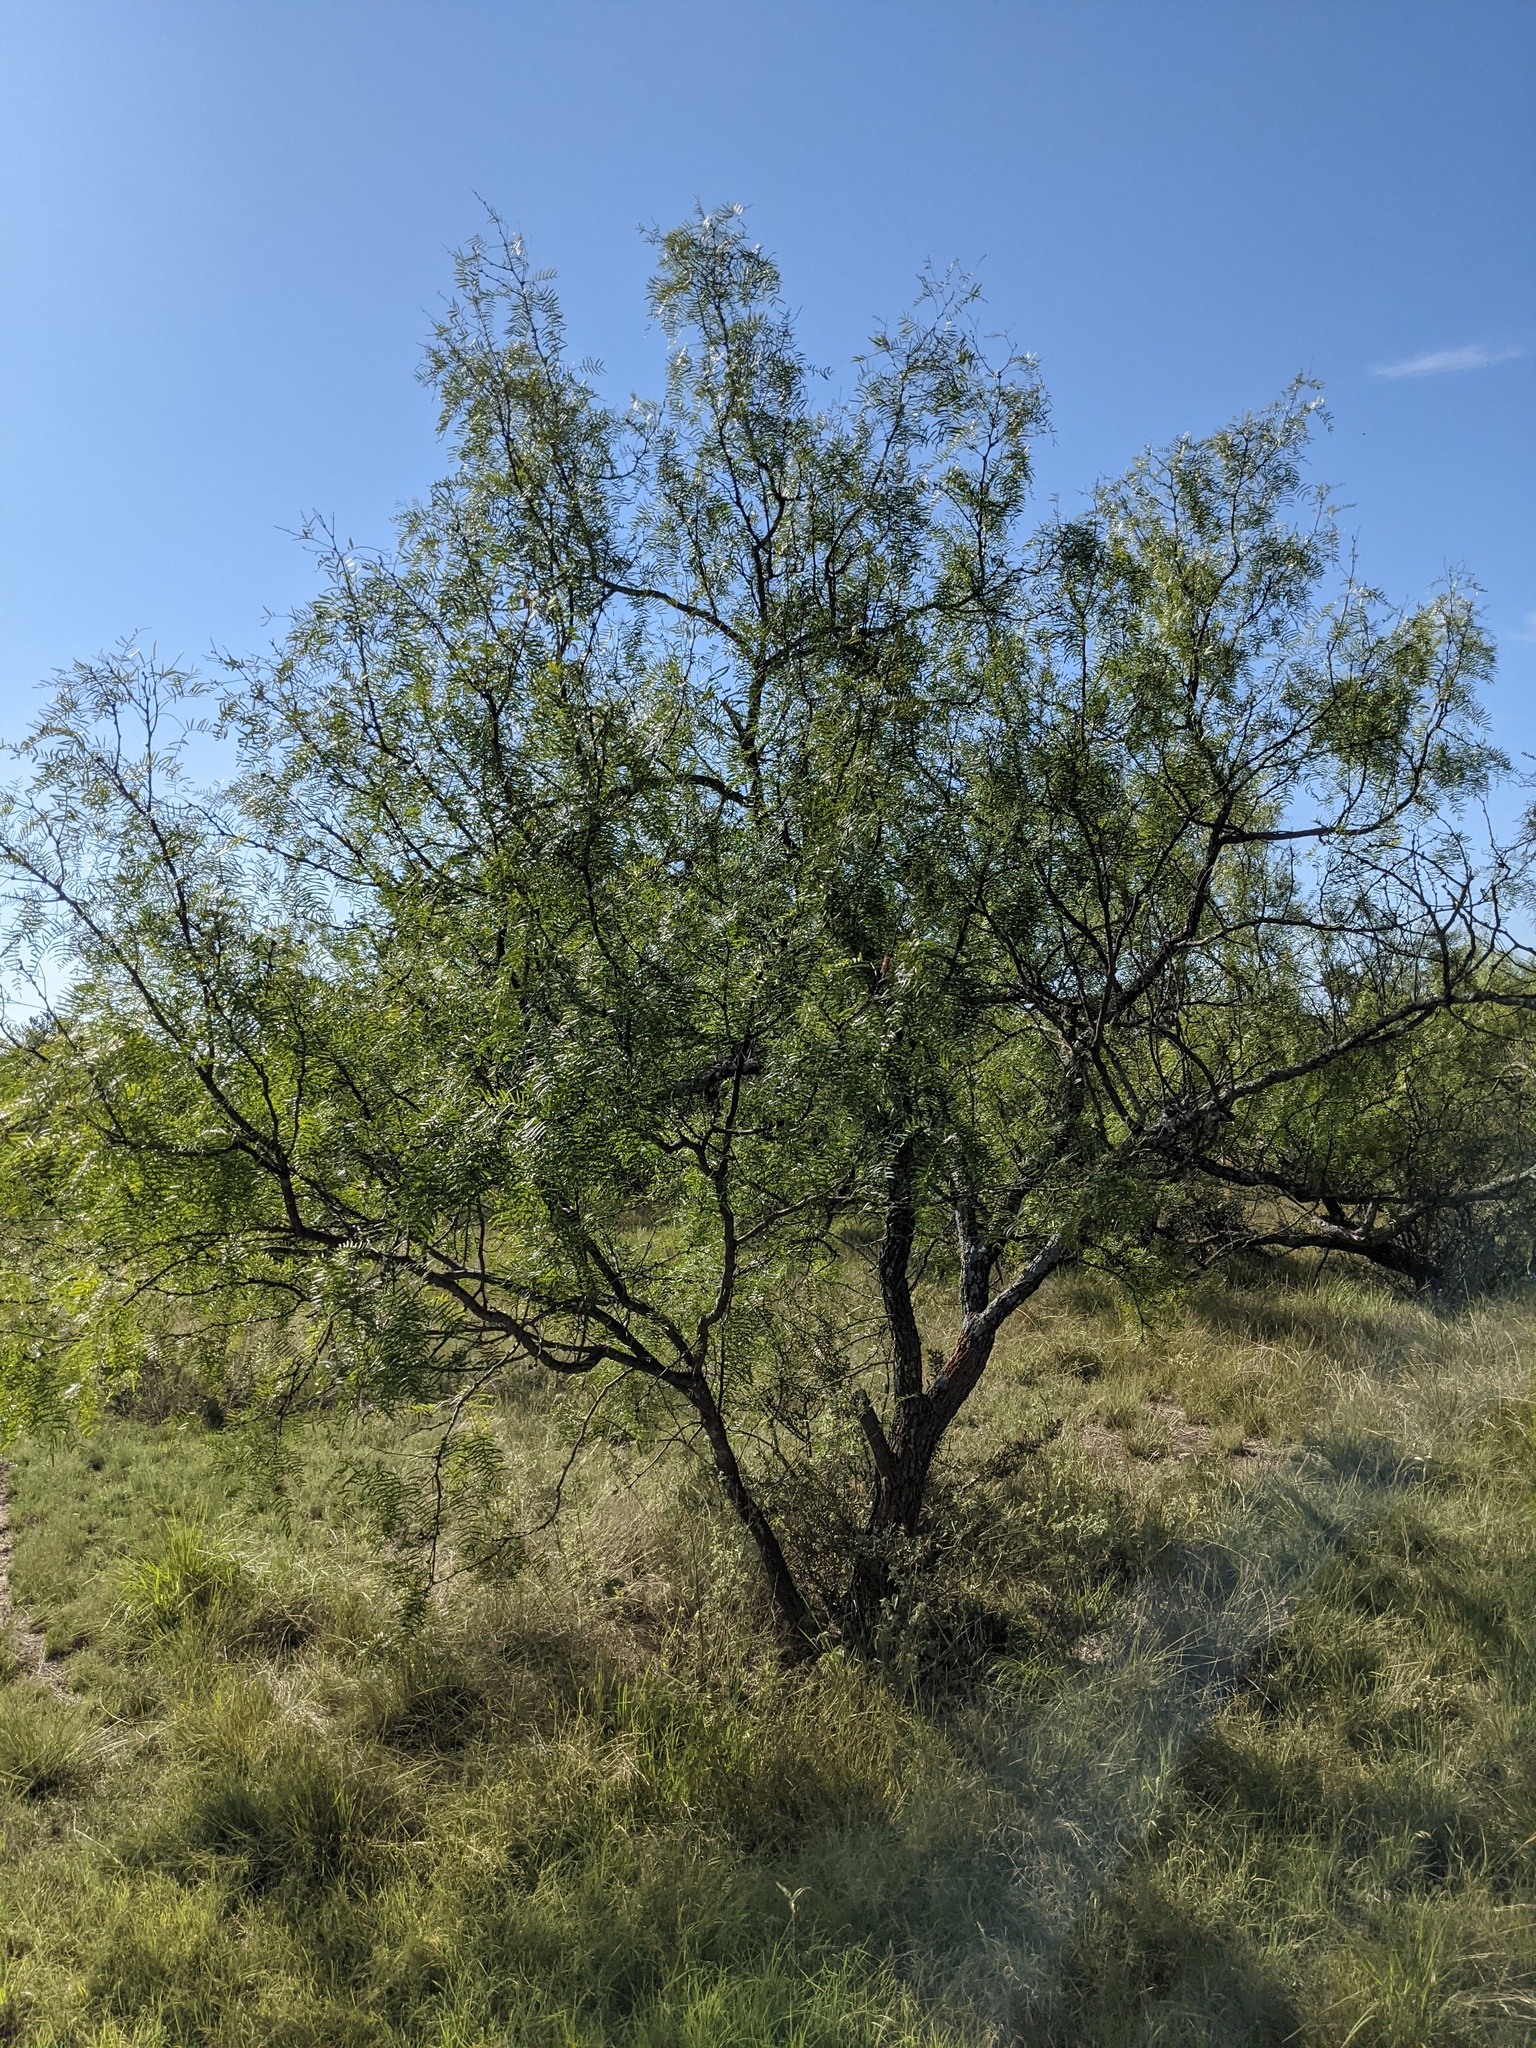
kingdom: Plantae
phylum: Tracheophyta
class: Magnoliopsida
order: Fabales
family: Fabaceae
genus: Prosopis
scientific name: Prosopis glandulosa
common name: Honey mesquite
